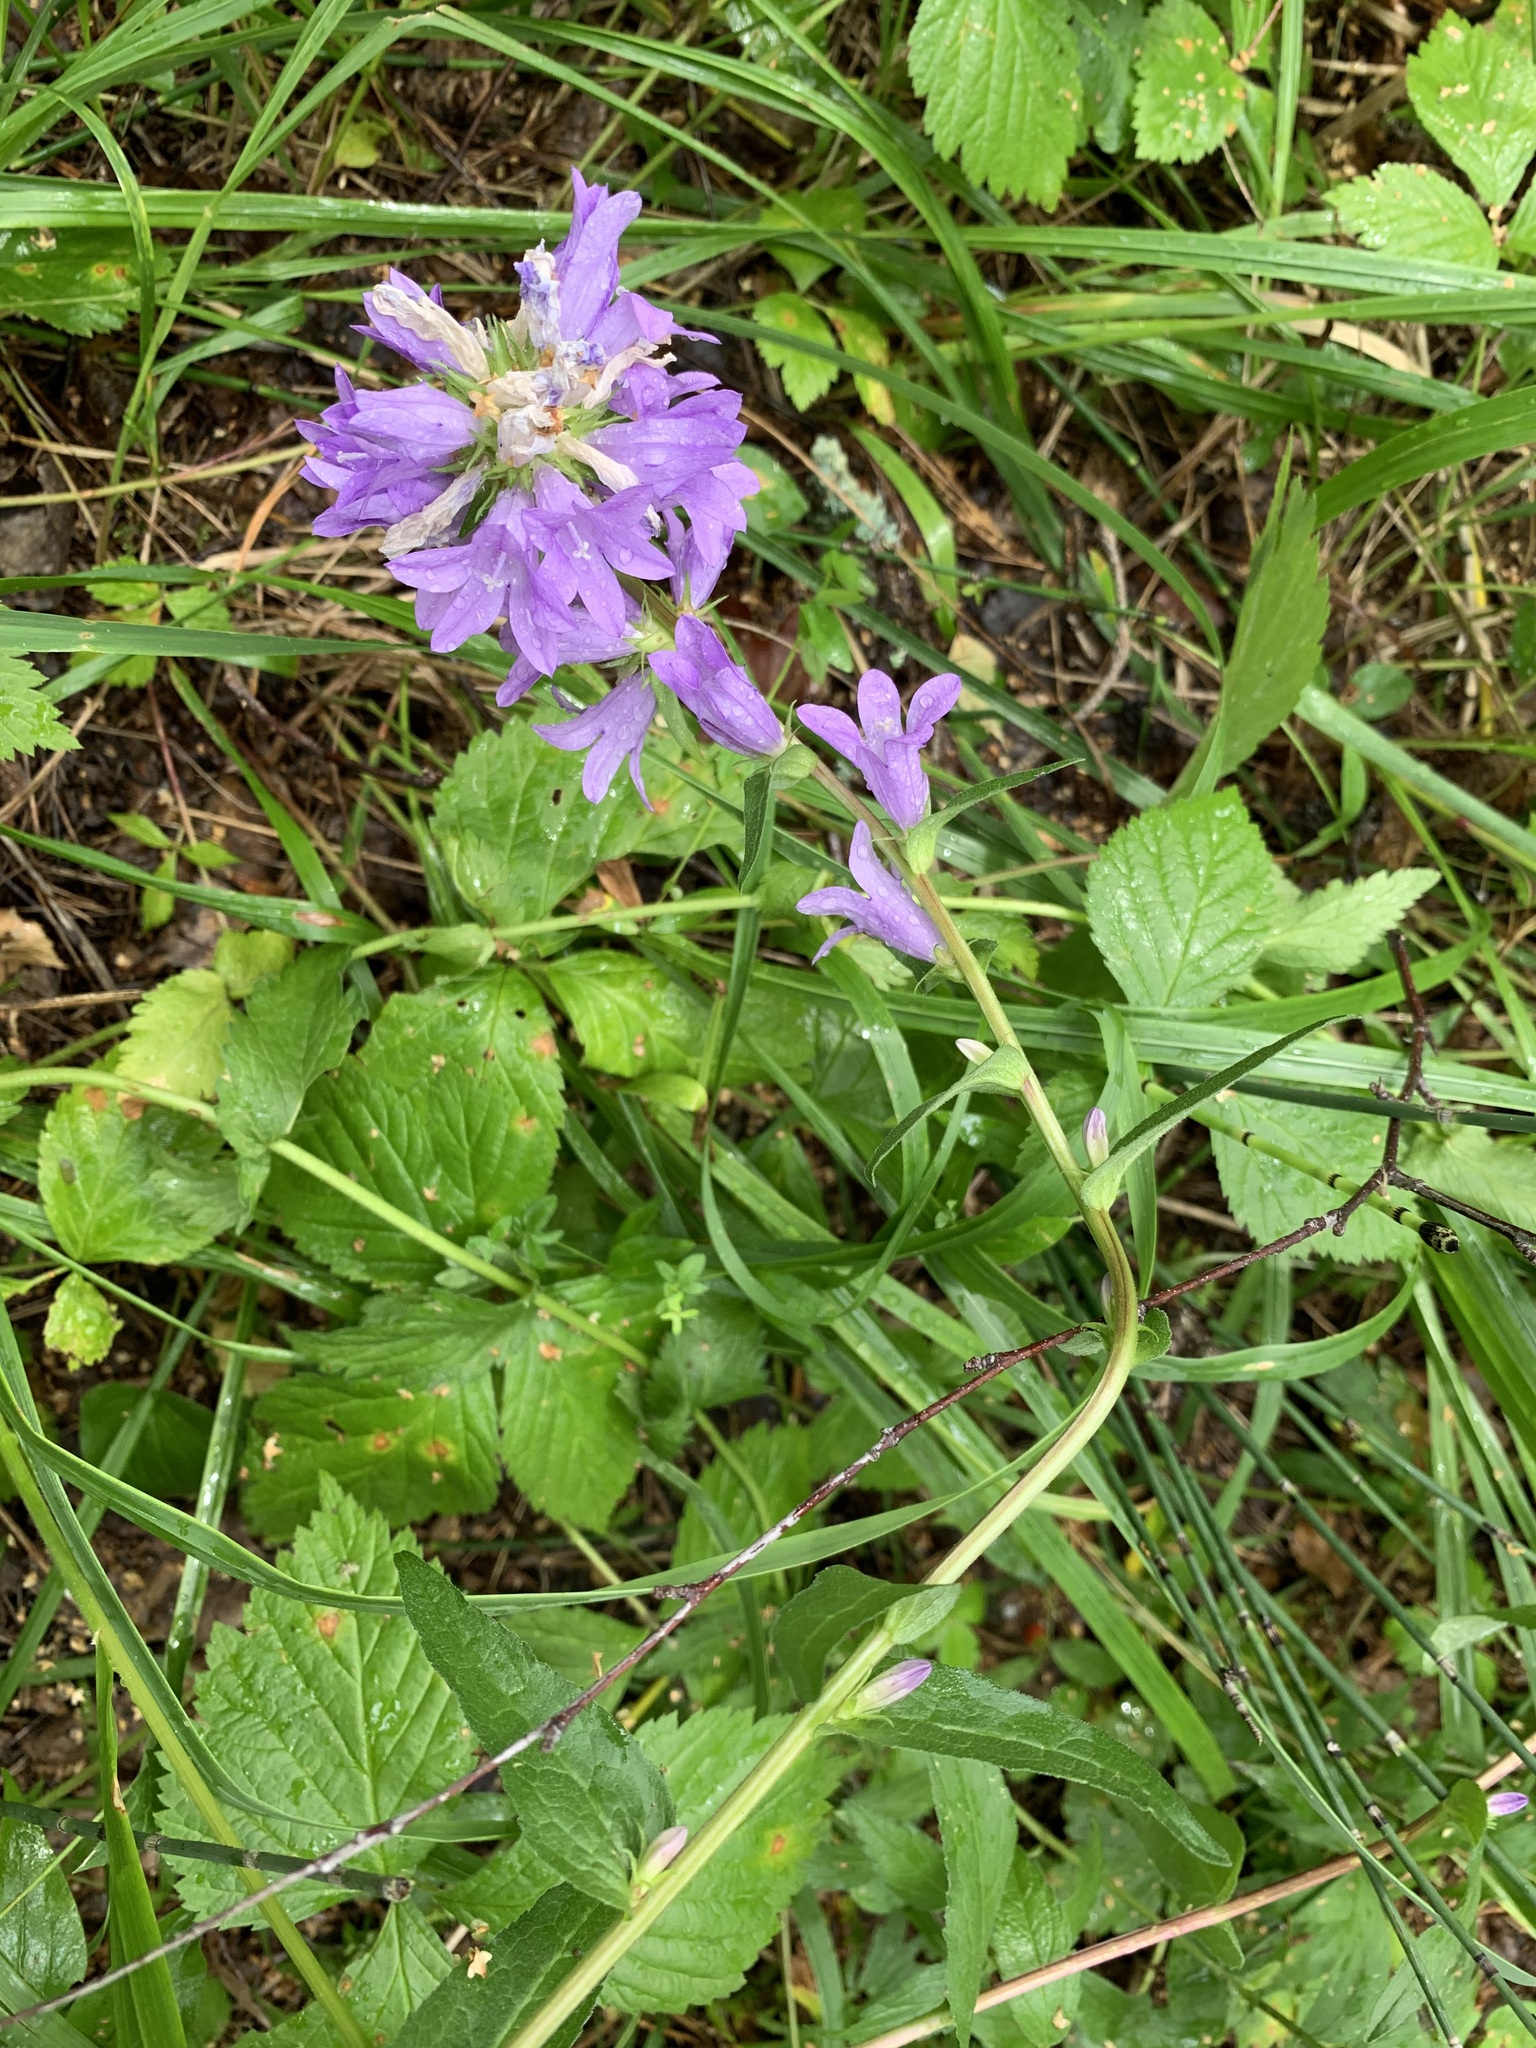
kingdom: Plantae
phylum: Tracheophyta
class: Magnoliopsida
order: Asterales
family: Campanulaceae
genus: Campanula
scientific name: Campanula glomerata
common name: Clustered bellflower
